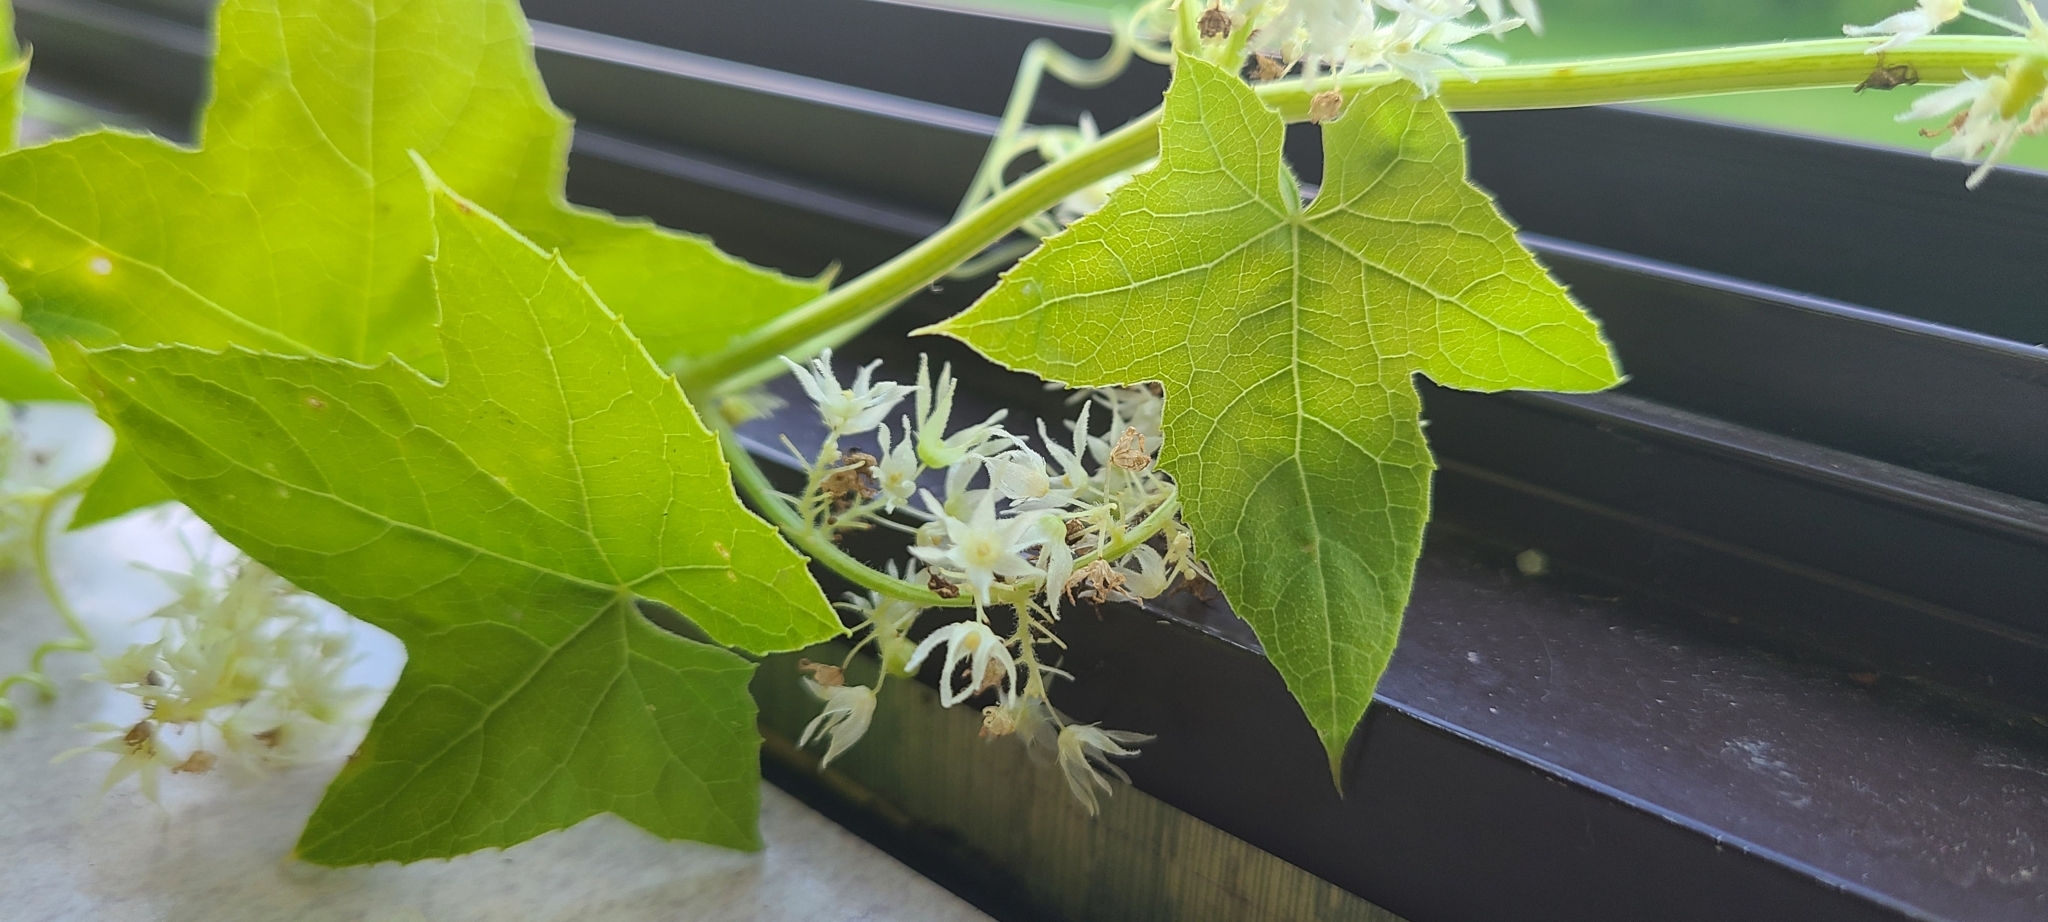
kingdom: Plantae
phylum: Tracheophyta
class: Magnoliopsida
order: Cucurbitales
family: Cucurbitaceae
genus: Echinocystis
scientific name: Echinocystis lobata
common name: Wild cucumber
